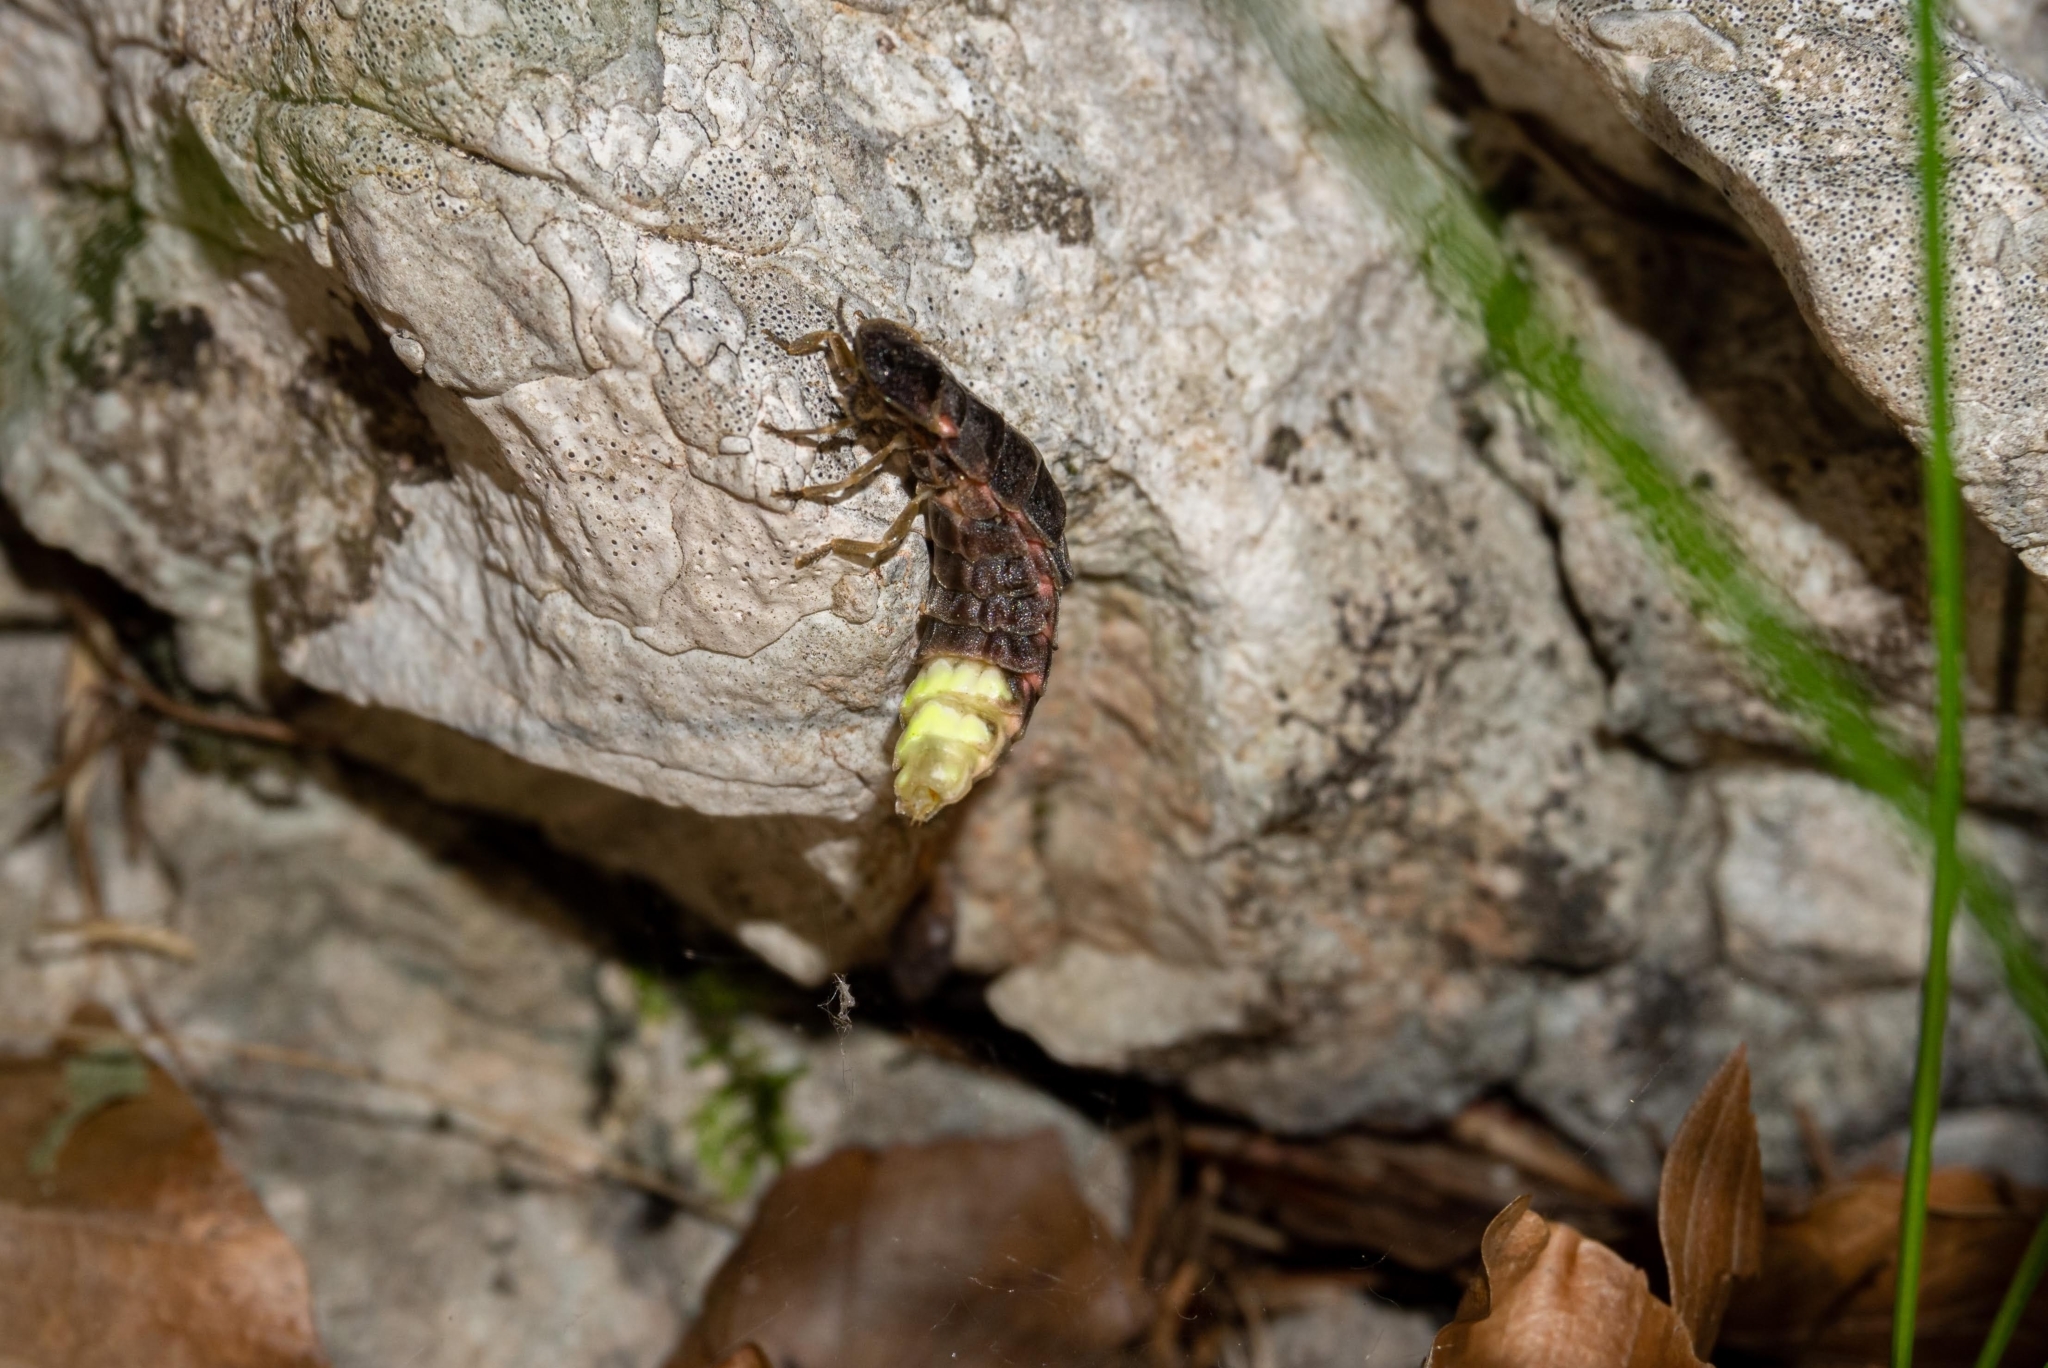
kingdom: Animalia
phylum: Arthropoda
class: Insecta
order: Coleoptera
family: Lampyridae
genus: Lampyris
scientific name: Lampyris noctiluca
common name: Glow-worm
